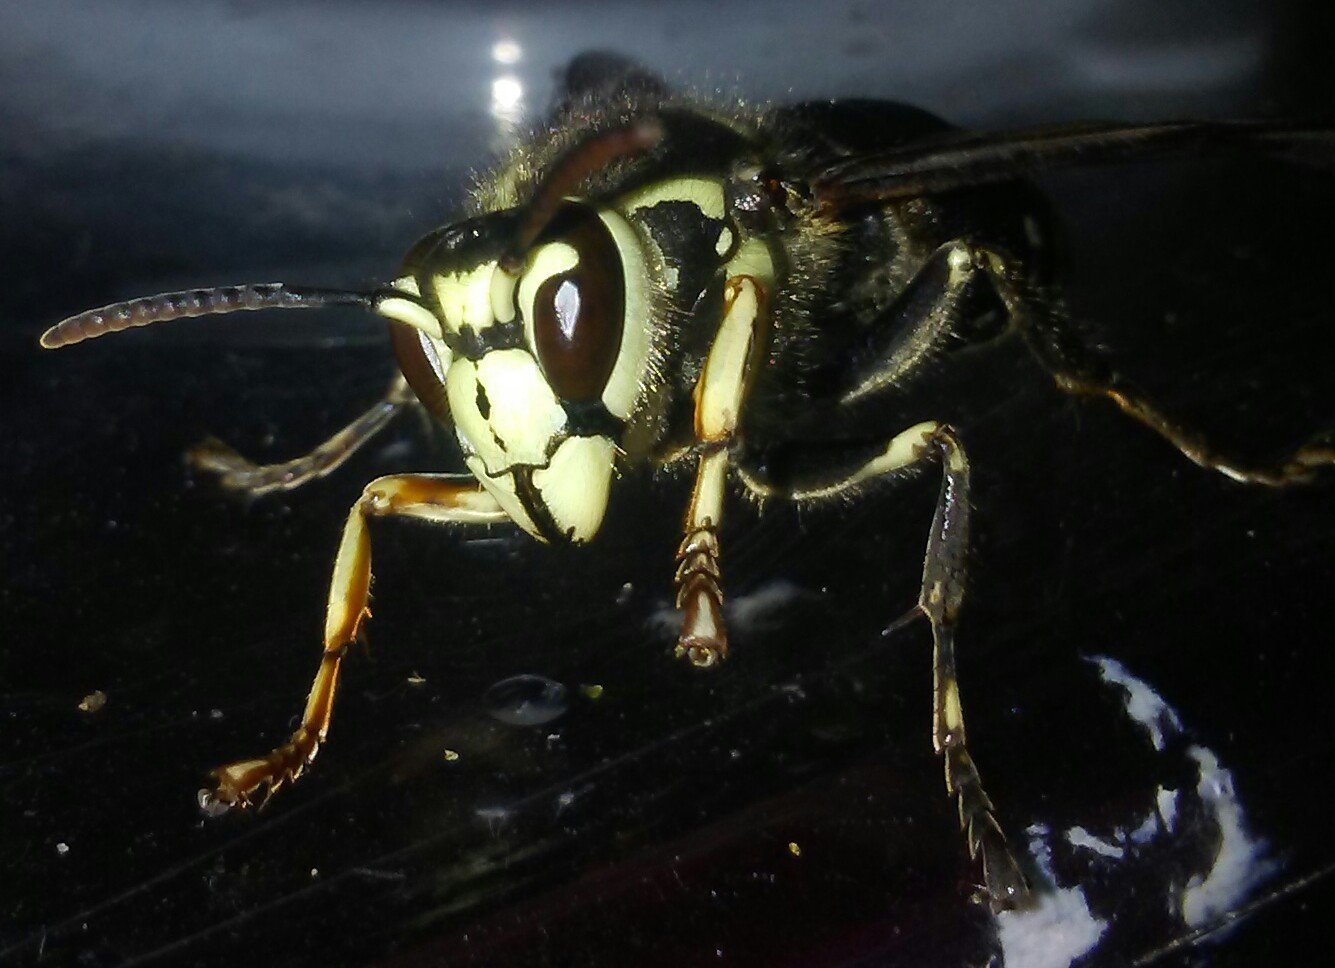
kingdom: Animalia
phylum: Arthropoda
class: Insecta
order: Hymenoptera
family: Vespidae
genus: Dolichovespula
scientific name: Dolichovespula maculata
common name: Bald-faced hornet
